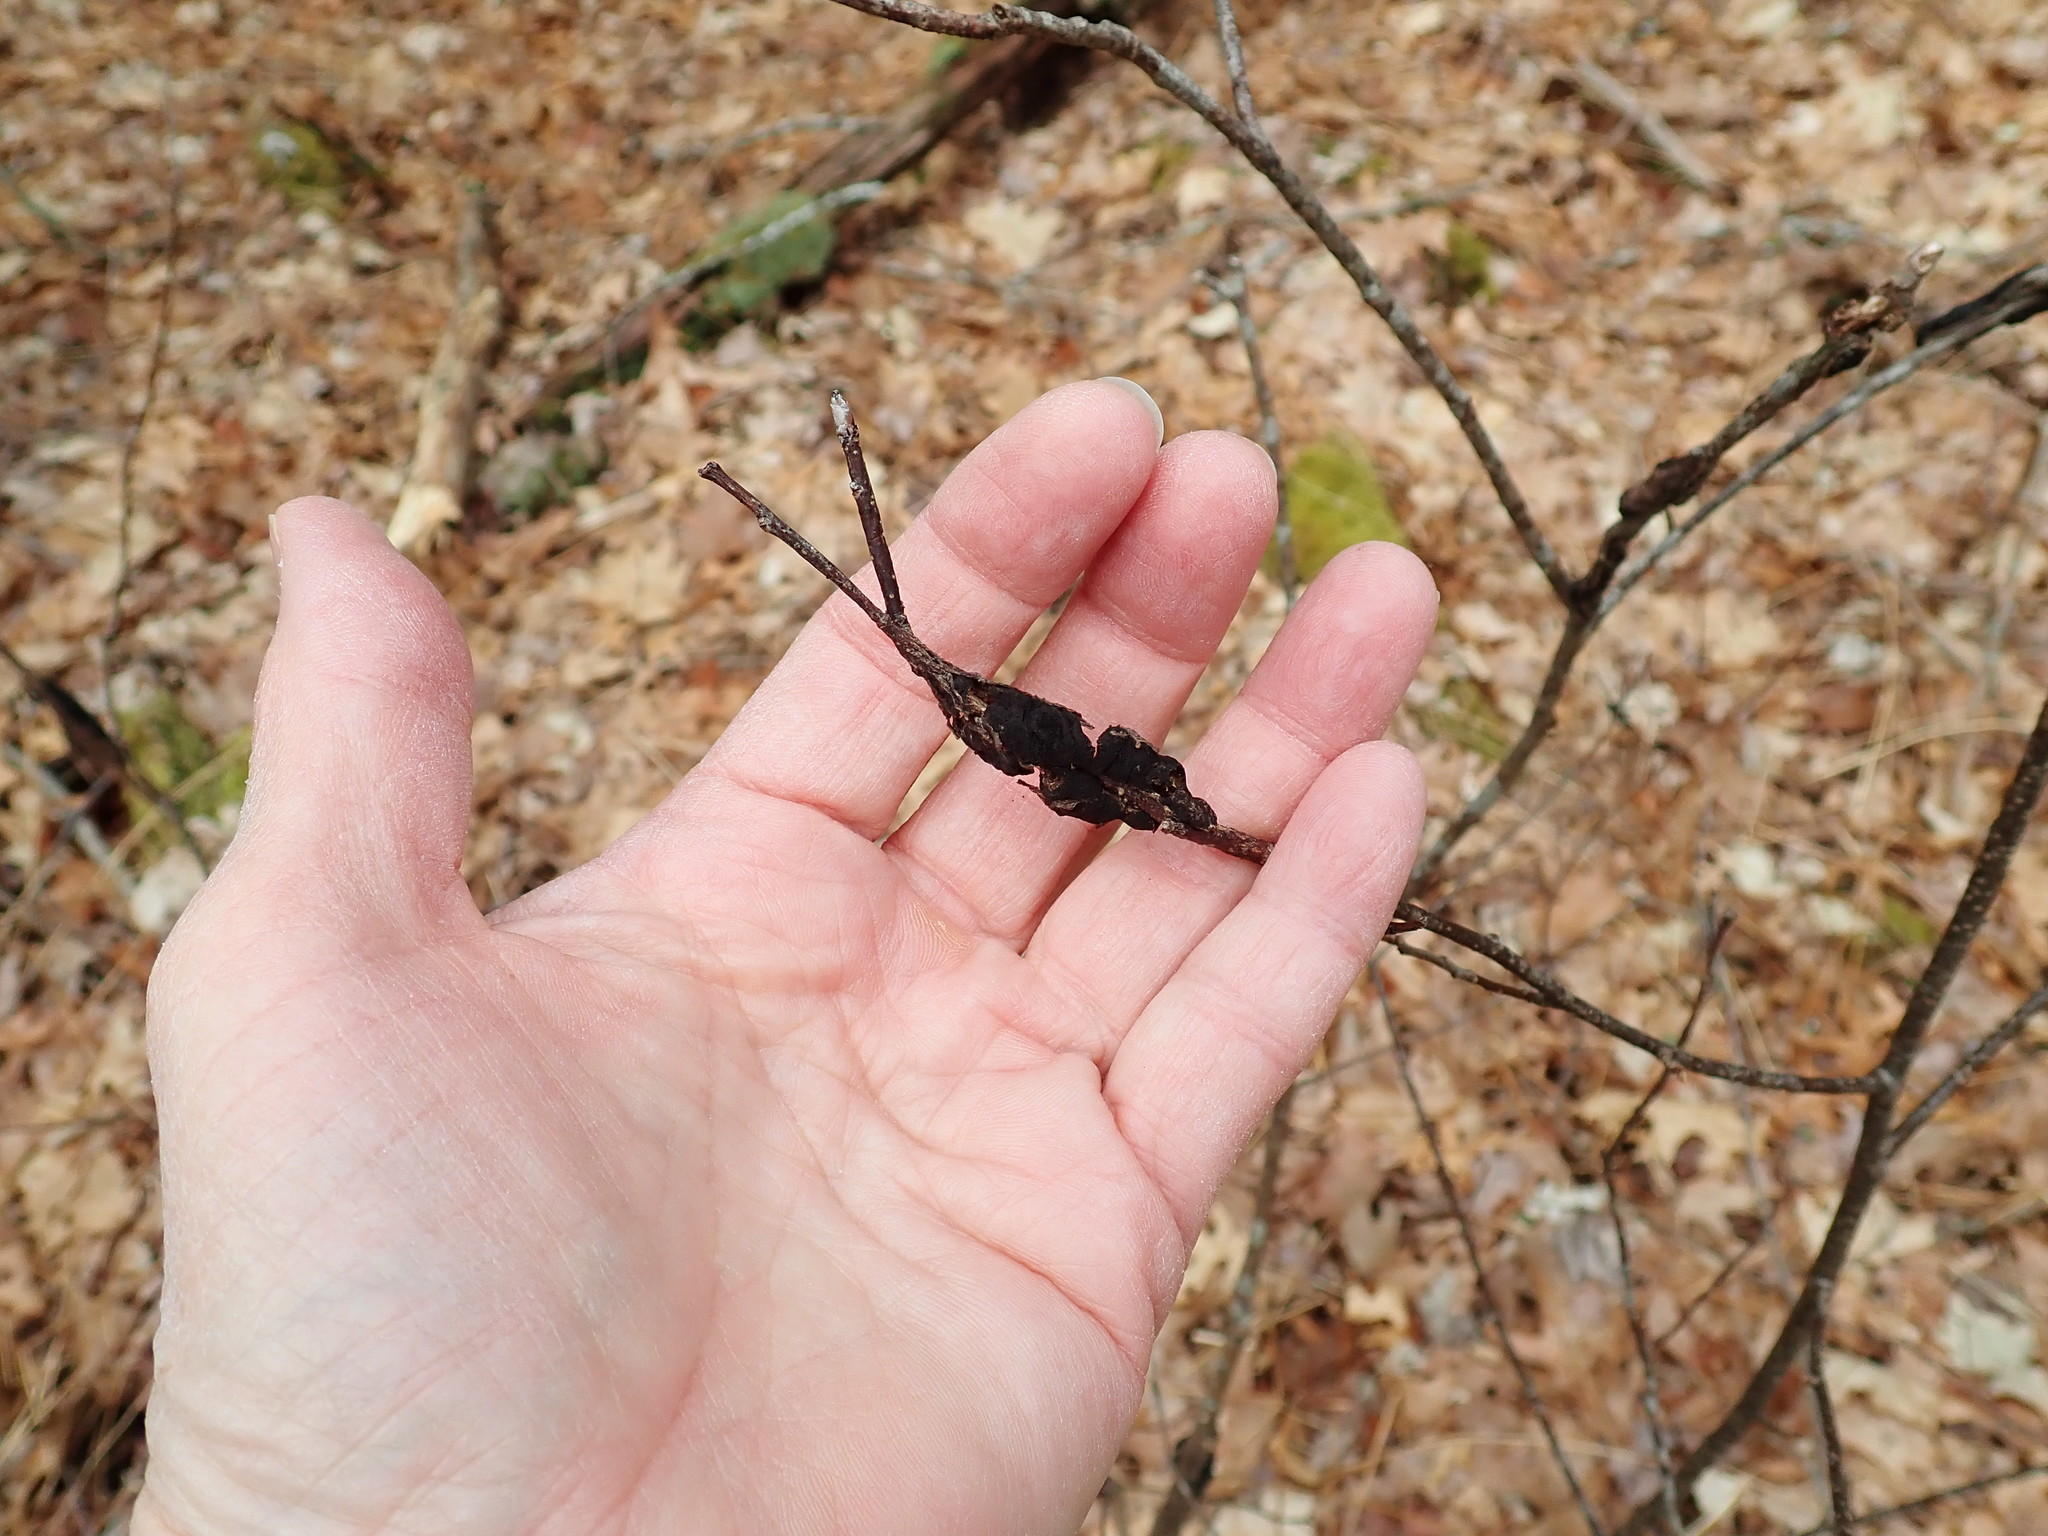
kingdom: Fungi
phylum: Ascomycota
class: Dothideomycetes
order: Venturiales
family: Venturiaceae
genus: Apiosporina
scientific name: Apiosporina morbosa
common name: Black knot
